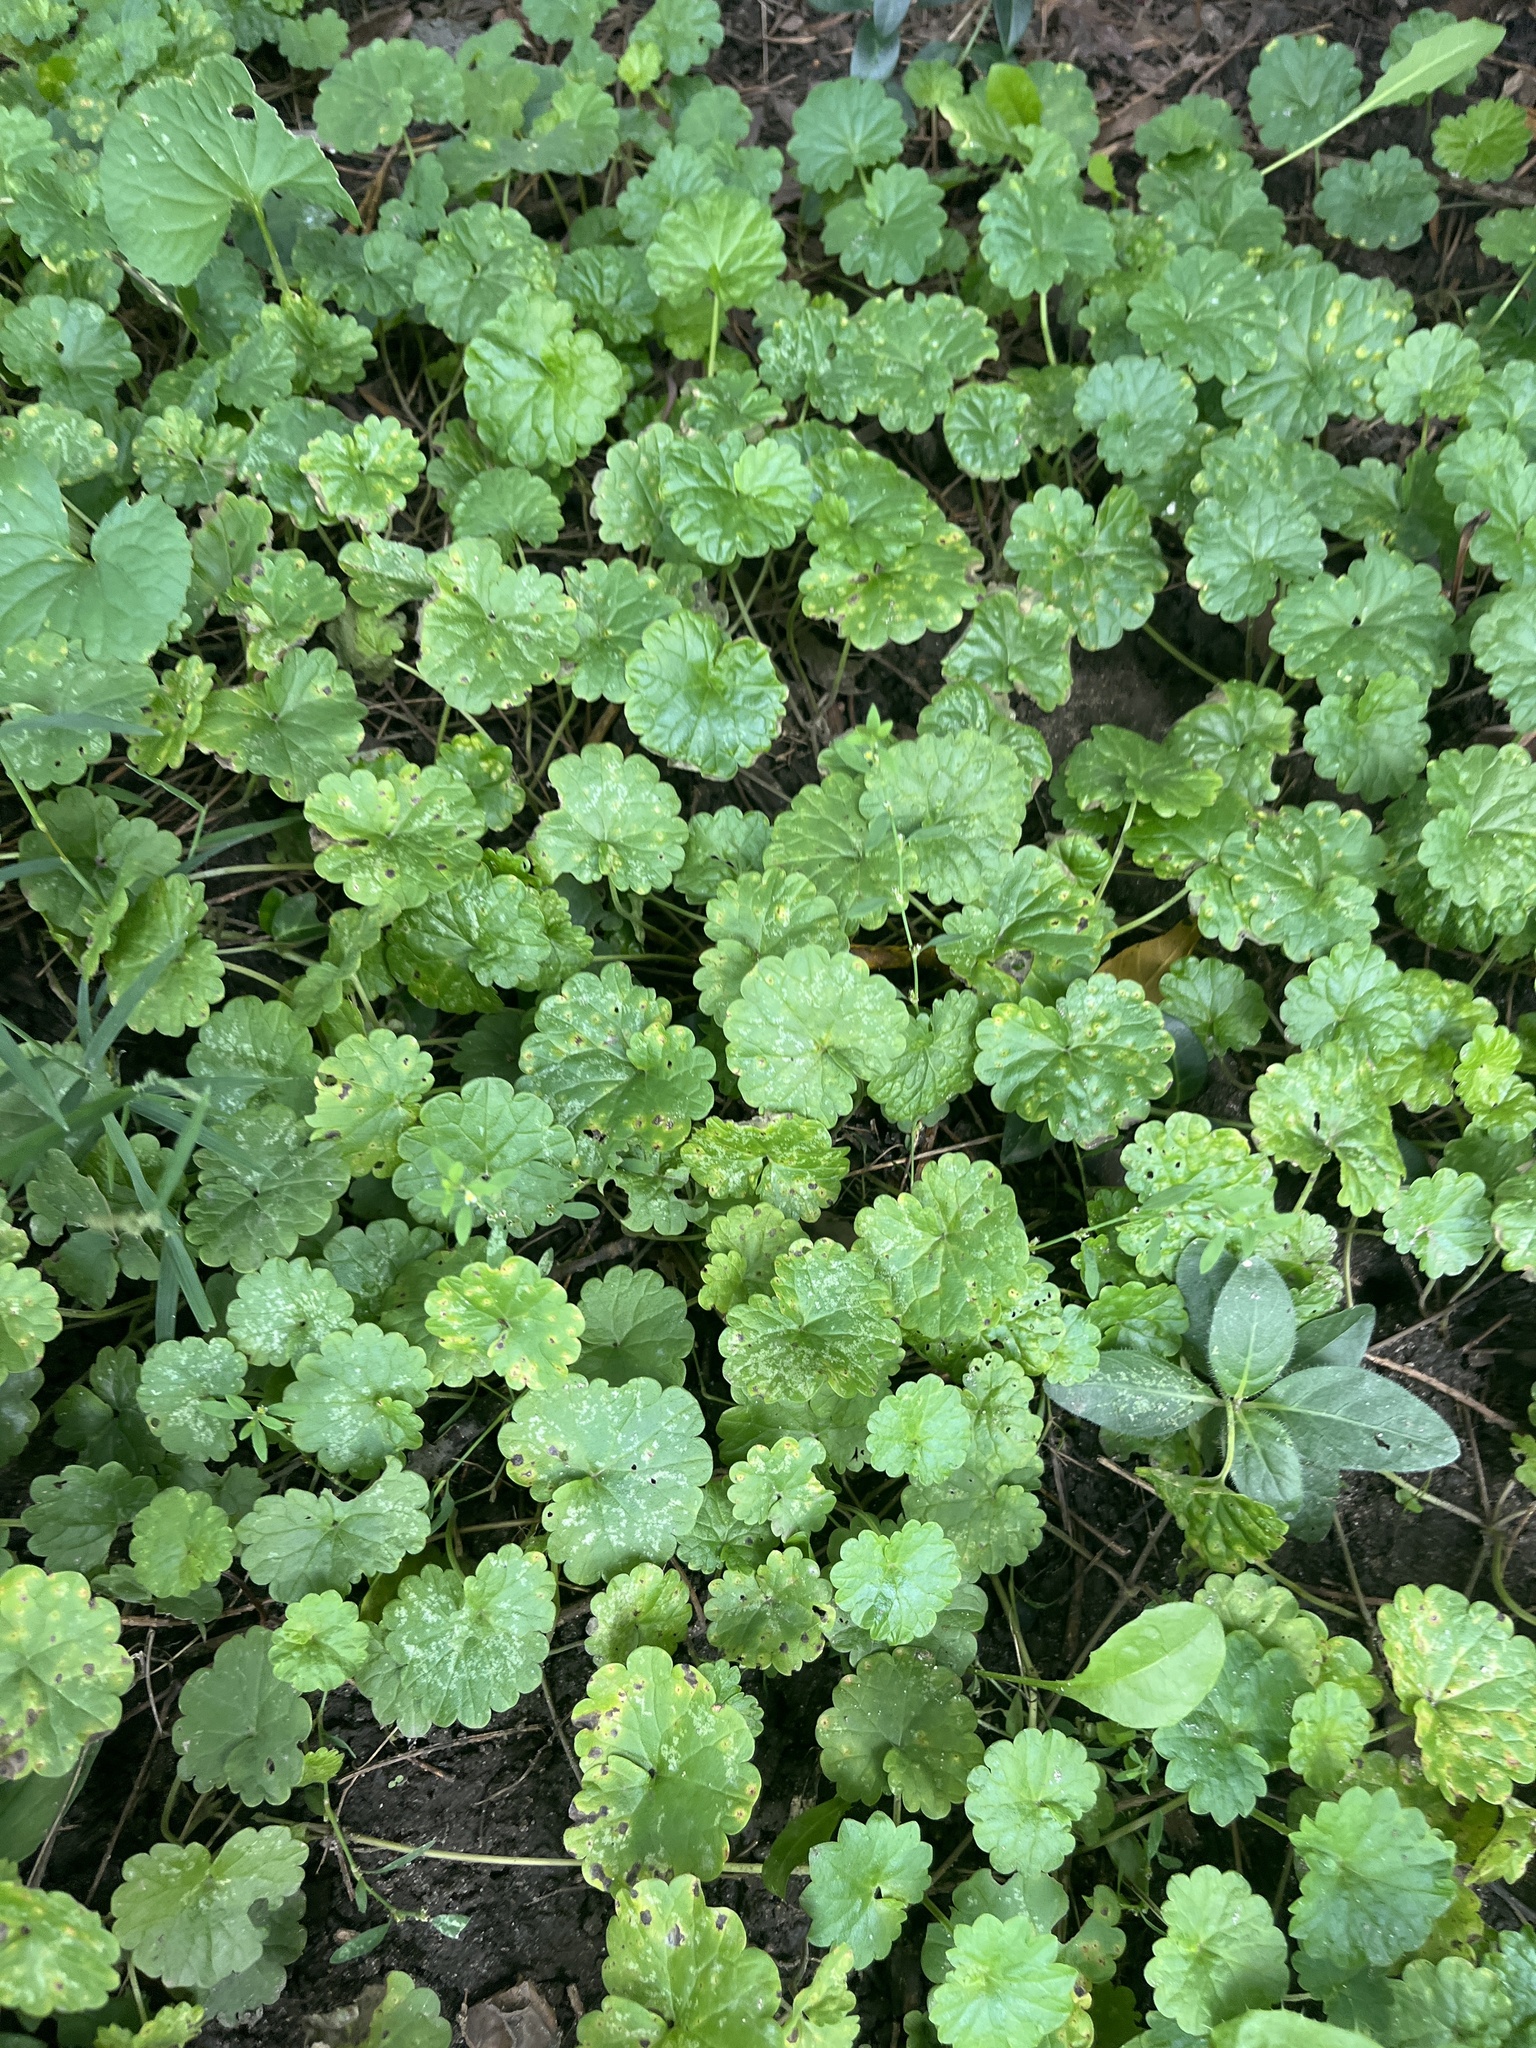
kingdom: Plantae
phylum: Tracheophyta
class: Magnoliopsida
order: Lamiales
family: Lamiaceae
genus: Glechoma
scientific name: Glechoma hederacea
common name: Ground ivy
